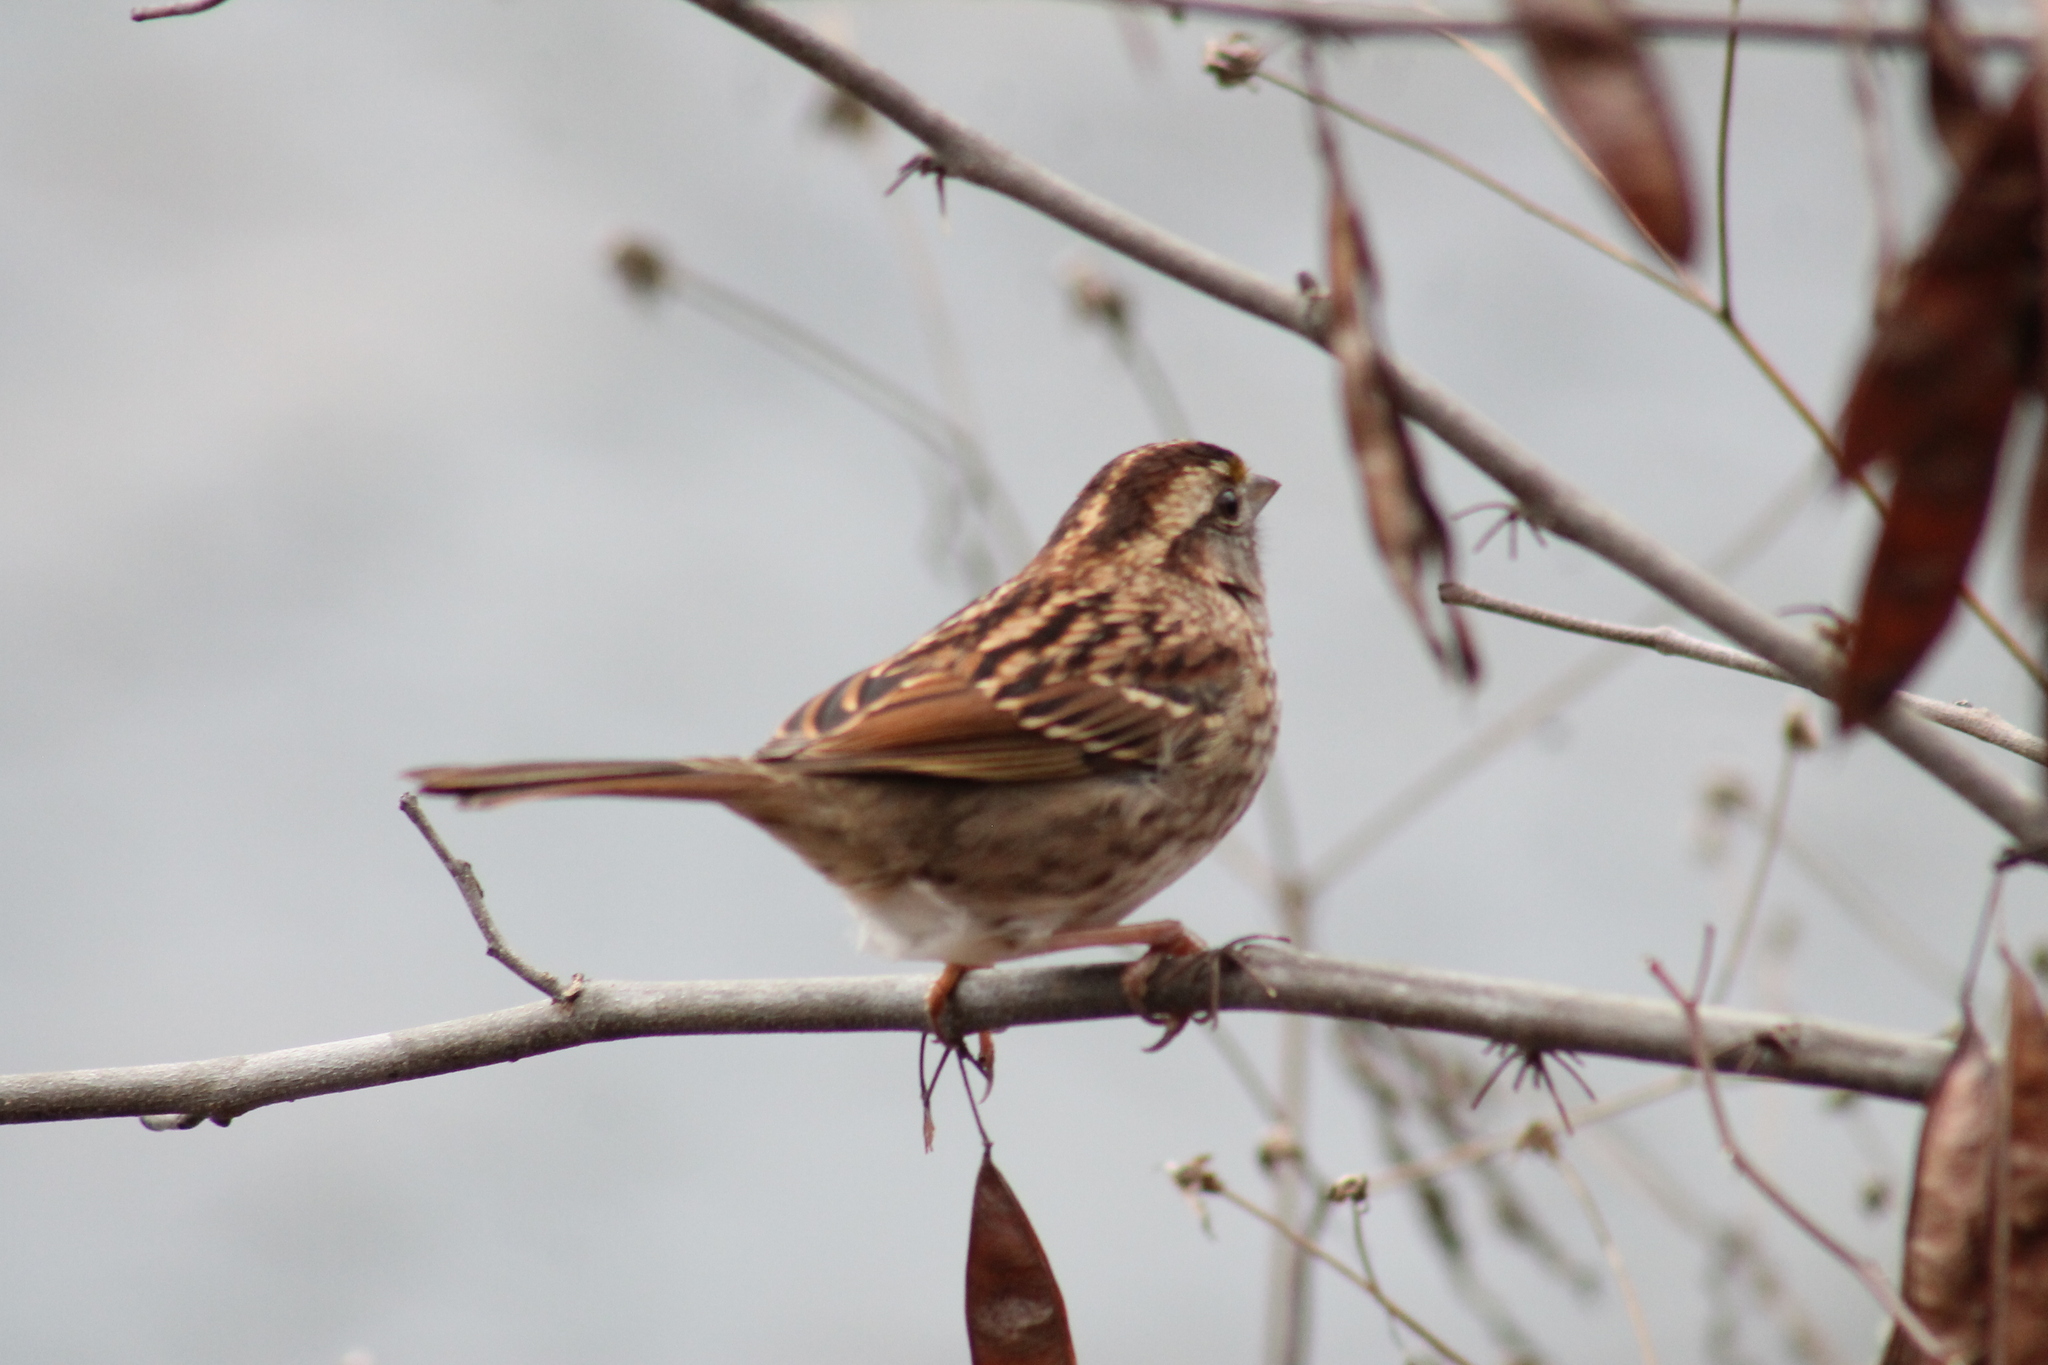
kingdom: Animalia
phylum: Chordata
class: Aves
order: Passeriformes
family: Passerellidae
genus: Zonotrichia
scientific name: Zonotrichia albicollis
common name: White-throated sparrow
